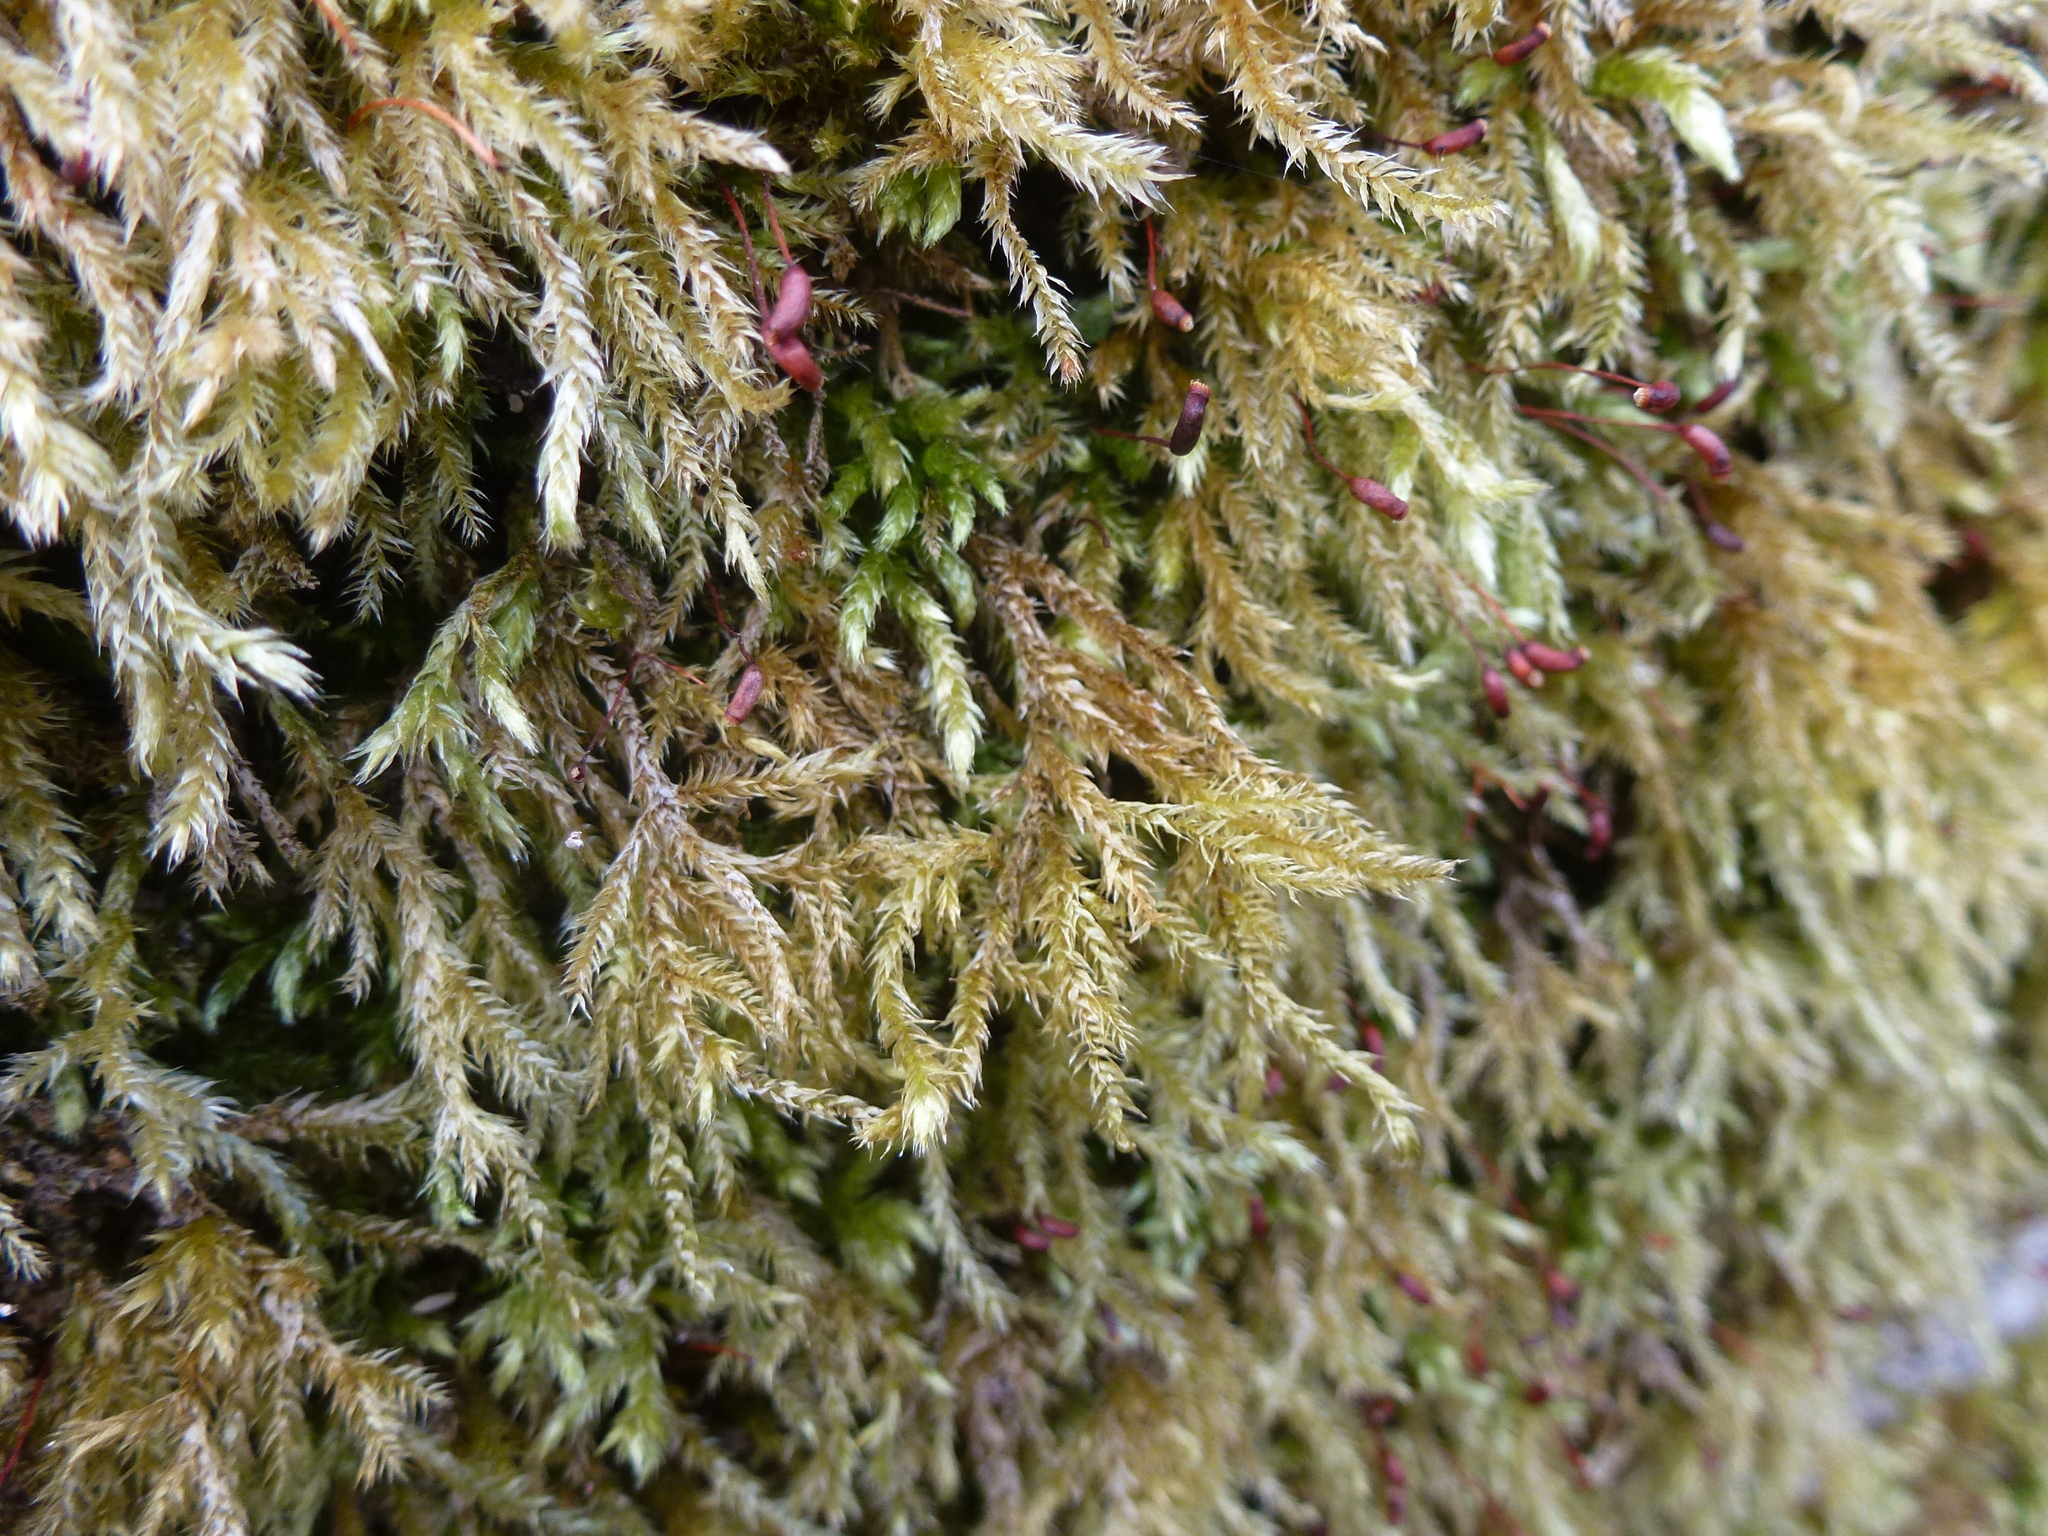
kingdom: Plantae
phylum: Bryophyta
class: Bryopsida
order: Hypnales
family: Brachytheciaceae
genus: Brachythecium
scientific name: Brachythecium rutabulum
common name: Rough-stalked feather-moss
